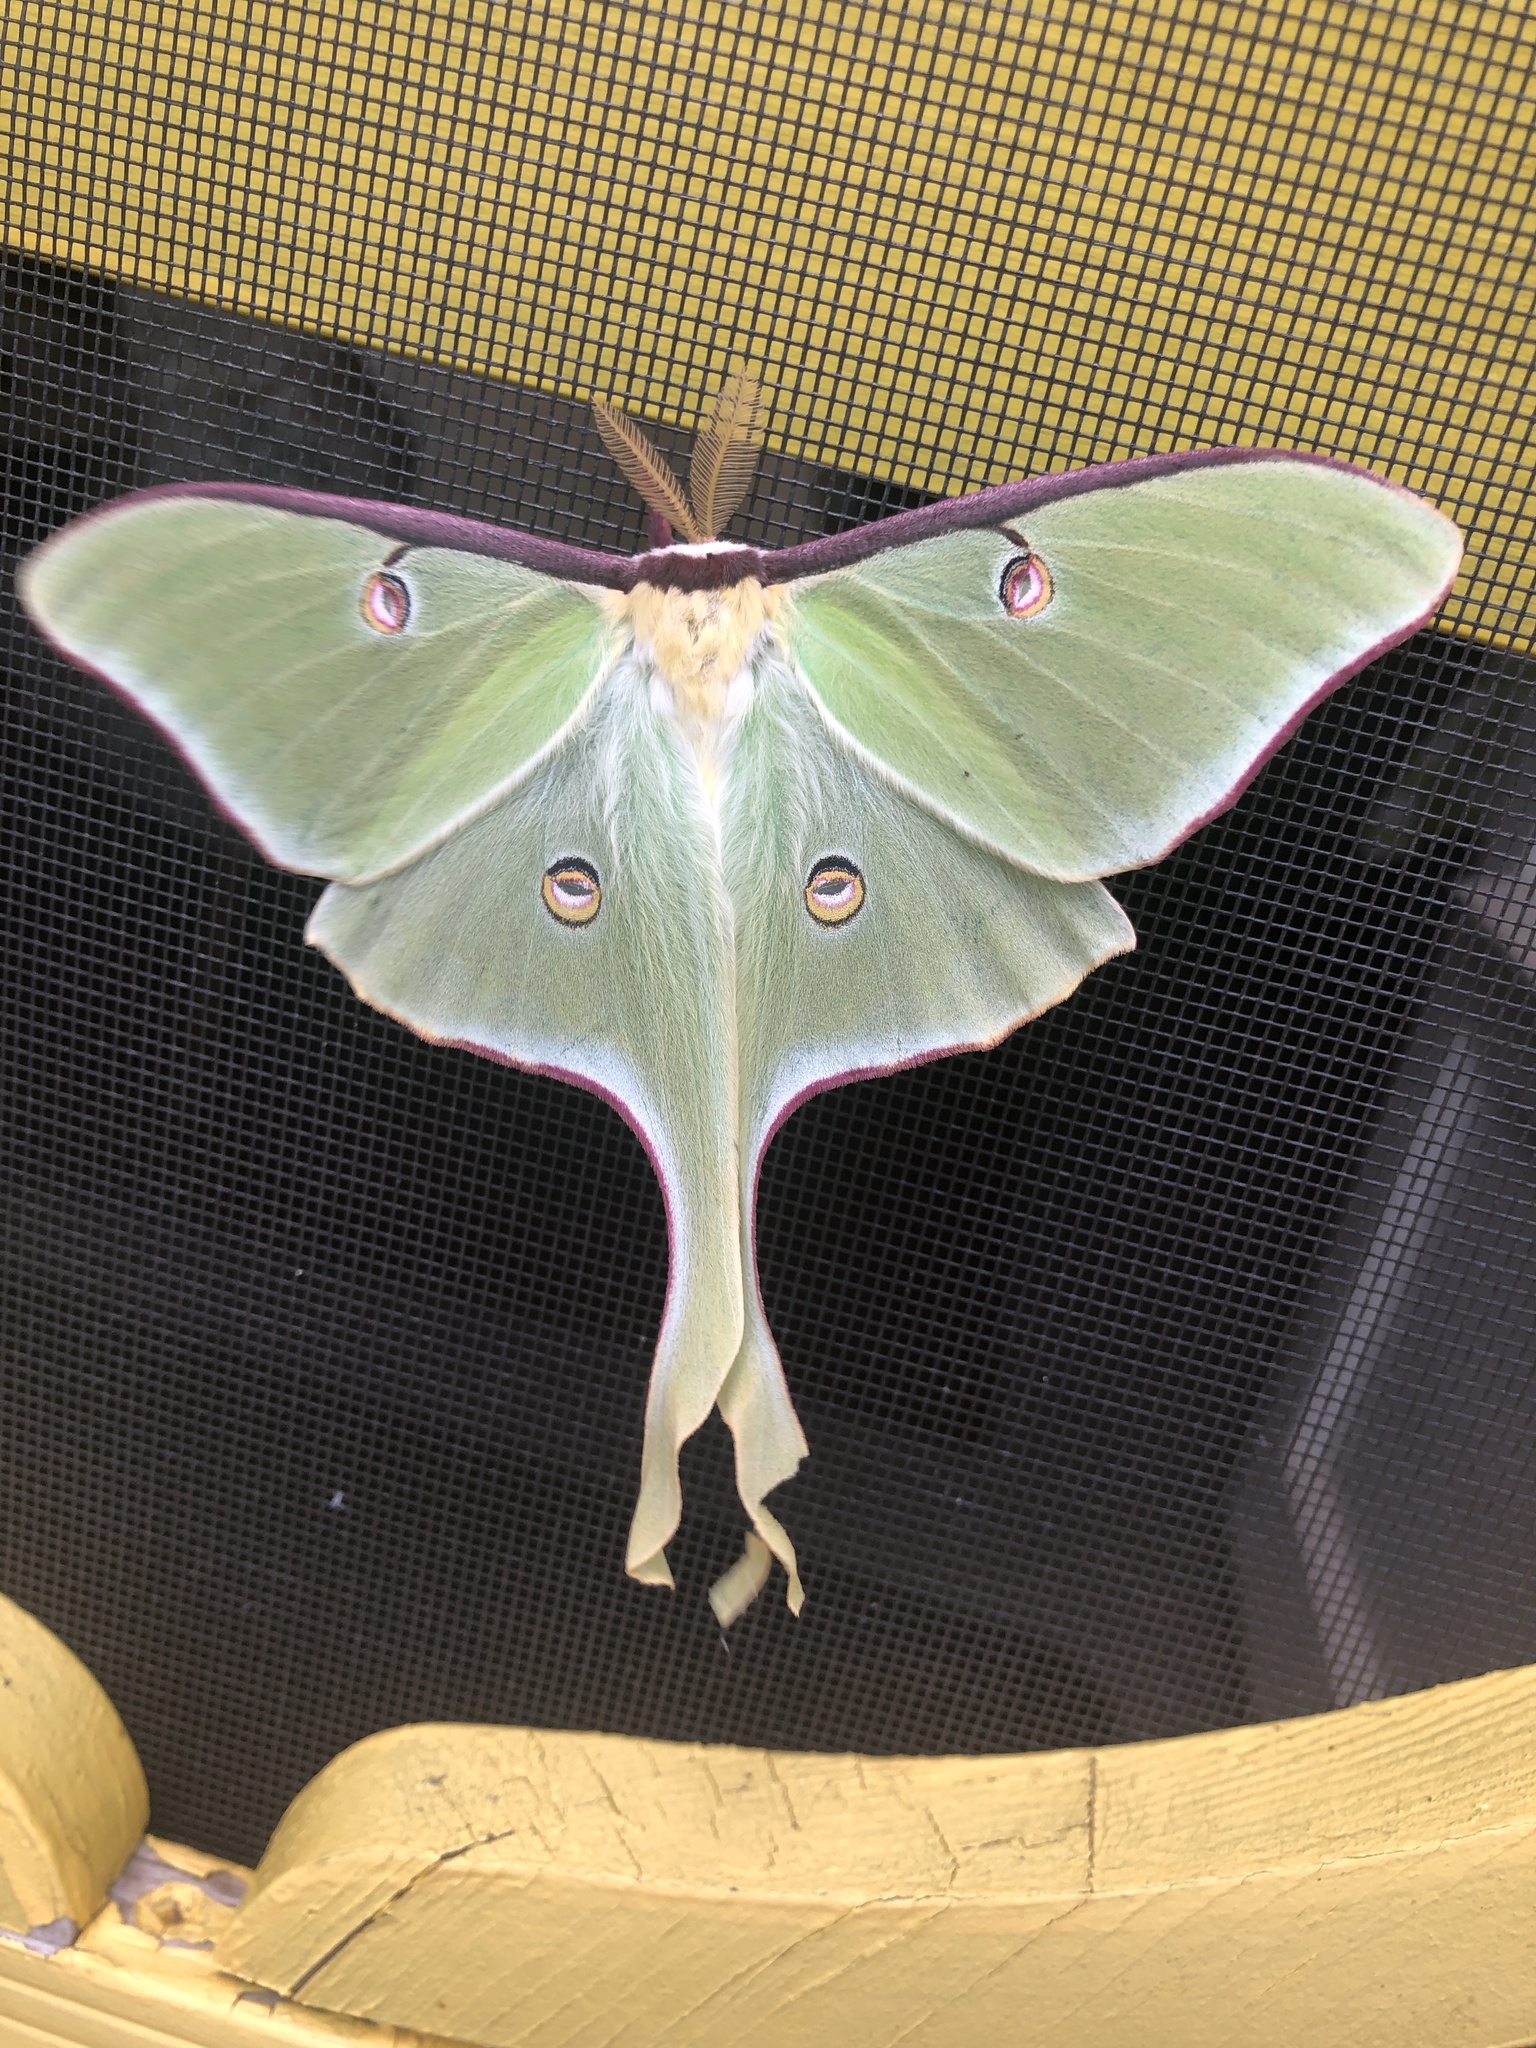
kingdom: Animalia
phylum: Arthropoda
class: Insecta
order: Lepidoptera
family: Saturniidae
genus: Actias
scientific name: Actias luna
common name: Luna moth
